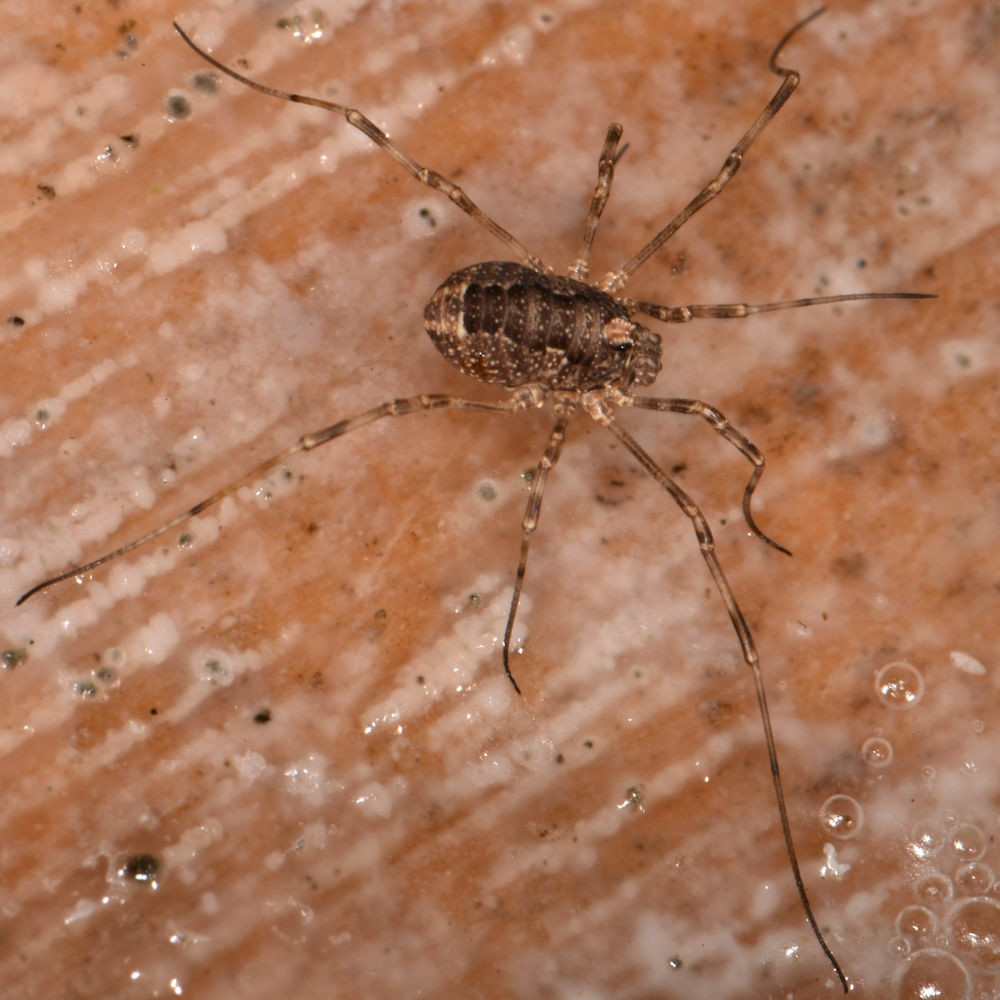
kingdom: Animalia
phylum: Arthropoda
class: Arachnida
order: Opiliones
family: Phalangiidae
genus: Rilaena
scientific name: Rilaena triangularis
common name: Spring harvestman
